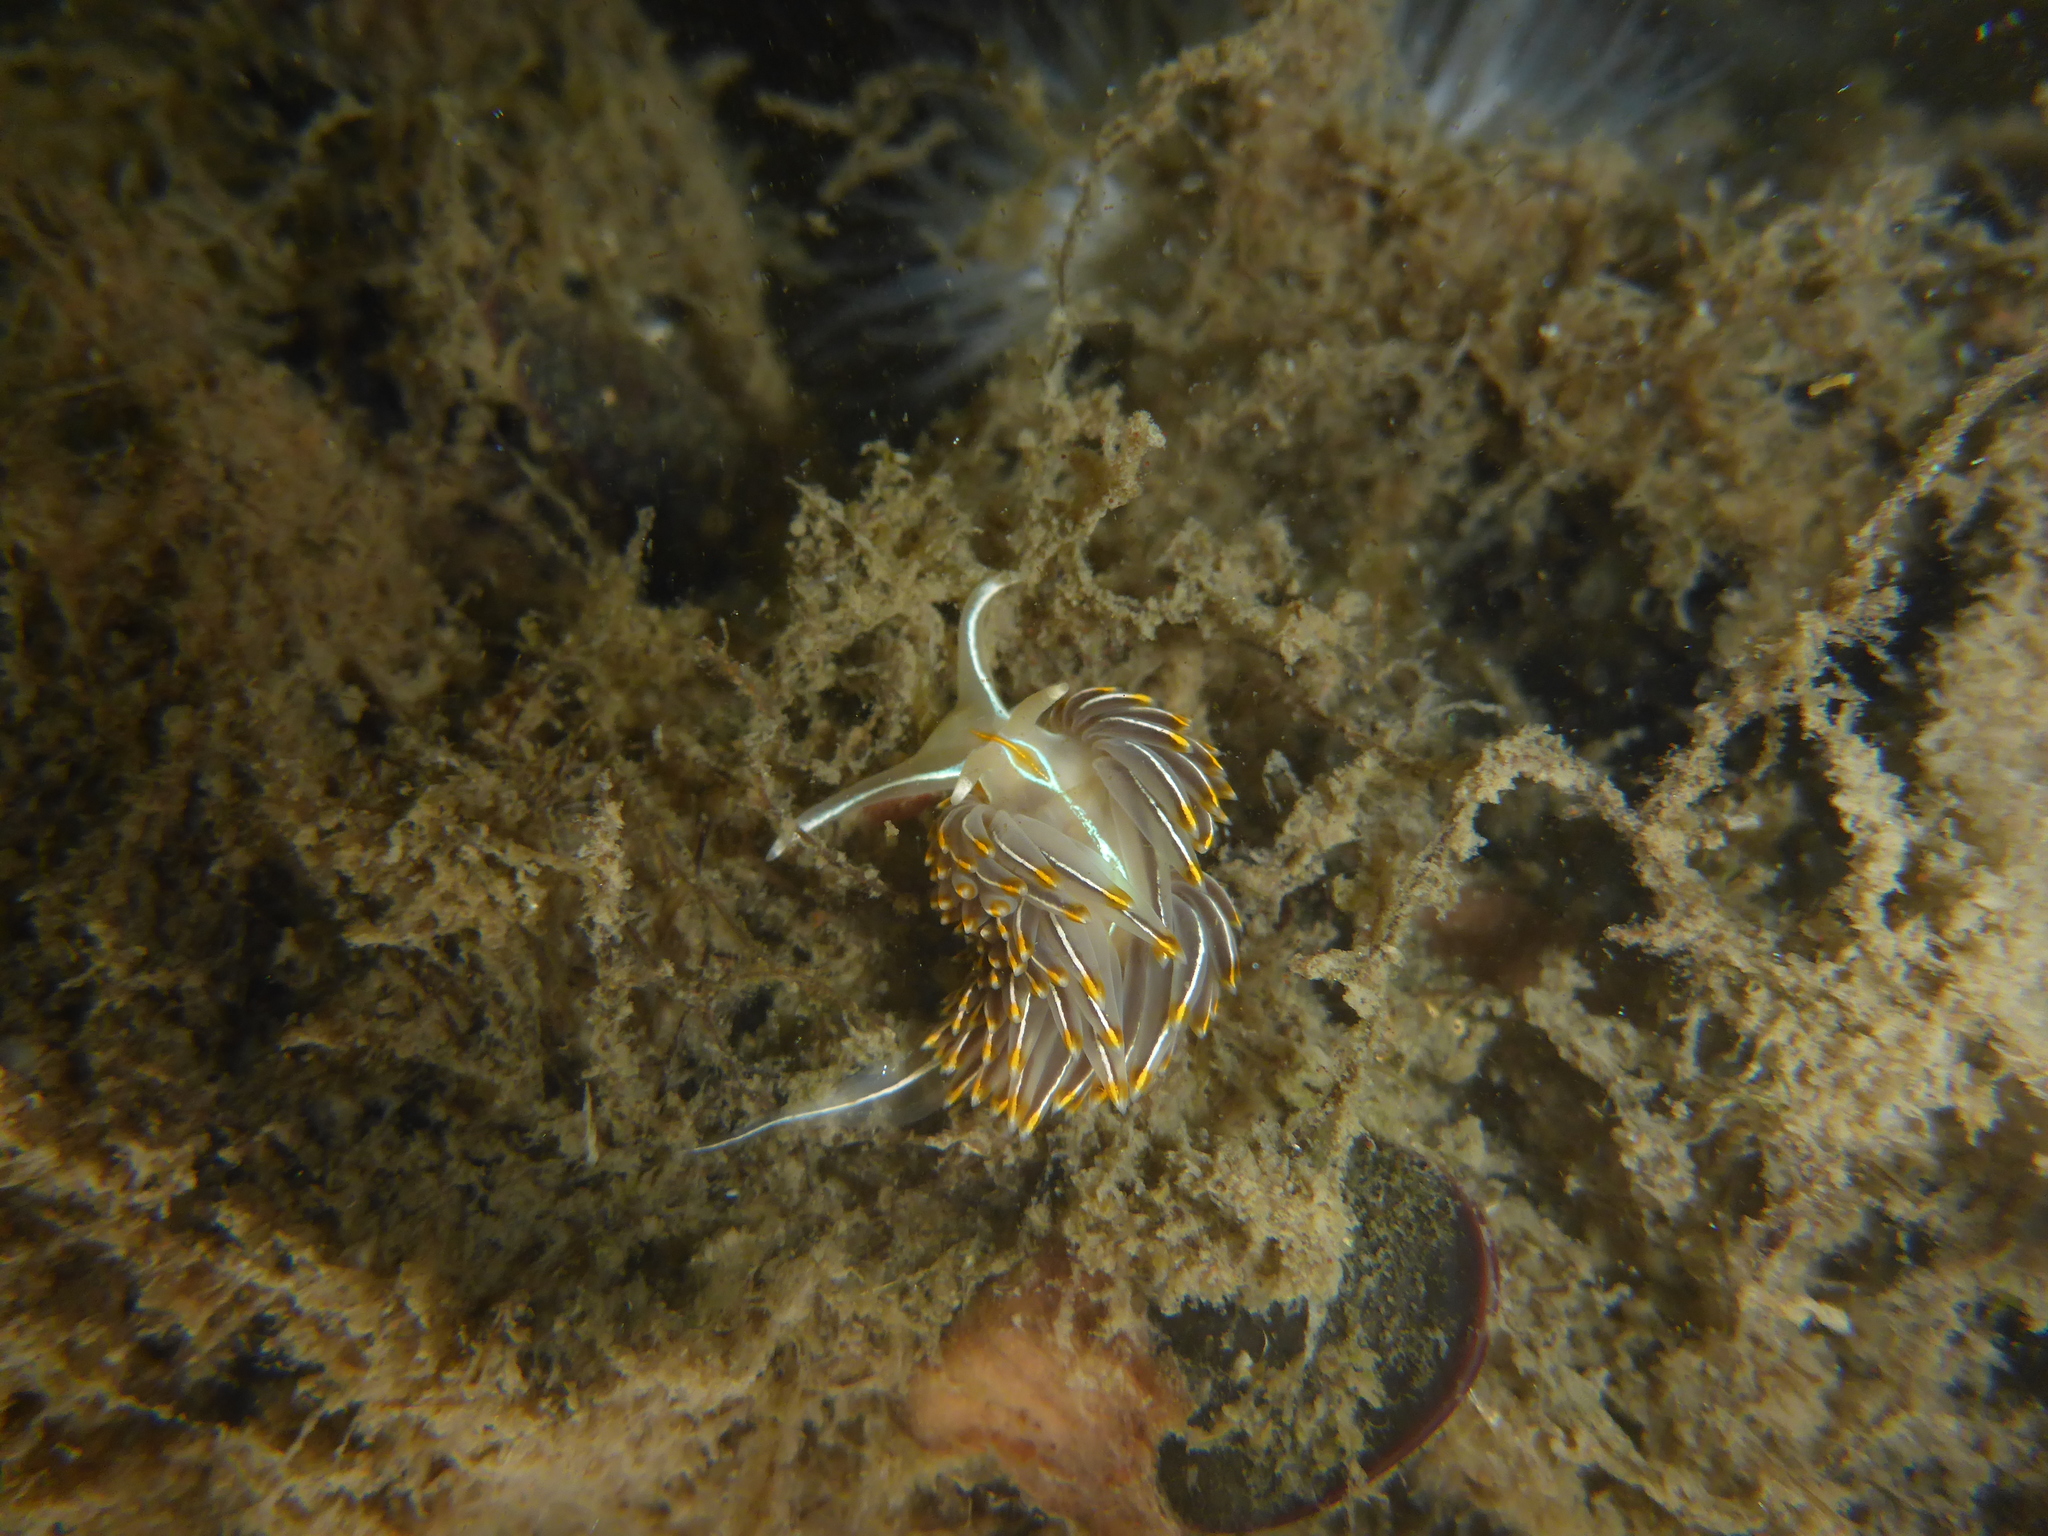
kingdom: Animalia
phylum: Mollusca
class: Gastropoda
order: Nudibranchia
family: Myrrhinidae
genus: Hermissenda
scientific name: Hermissenda crassicornis
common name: Hermissenda
